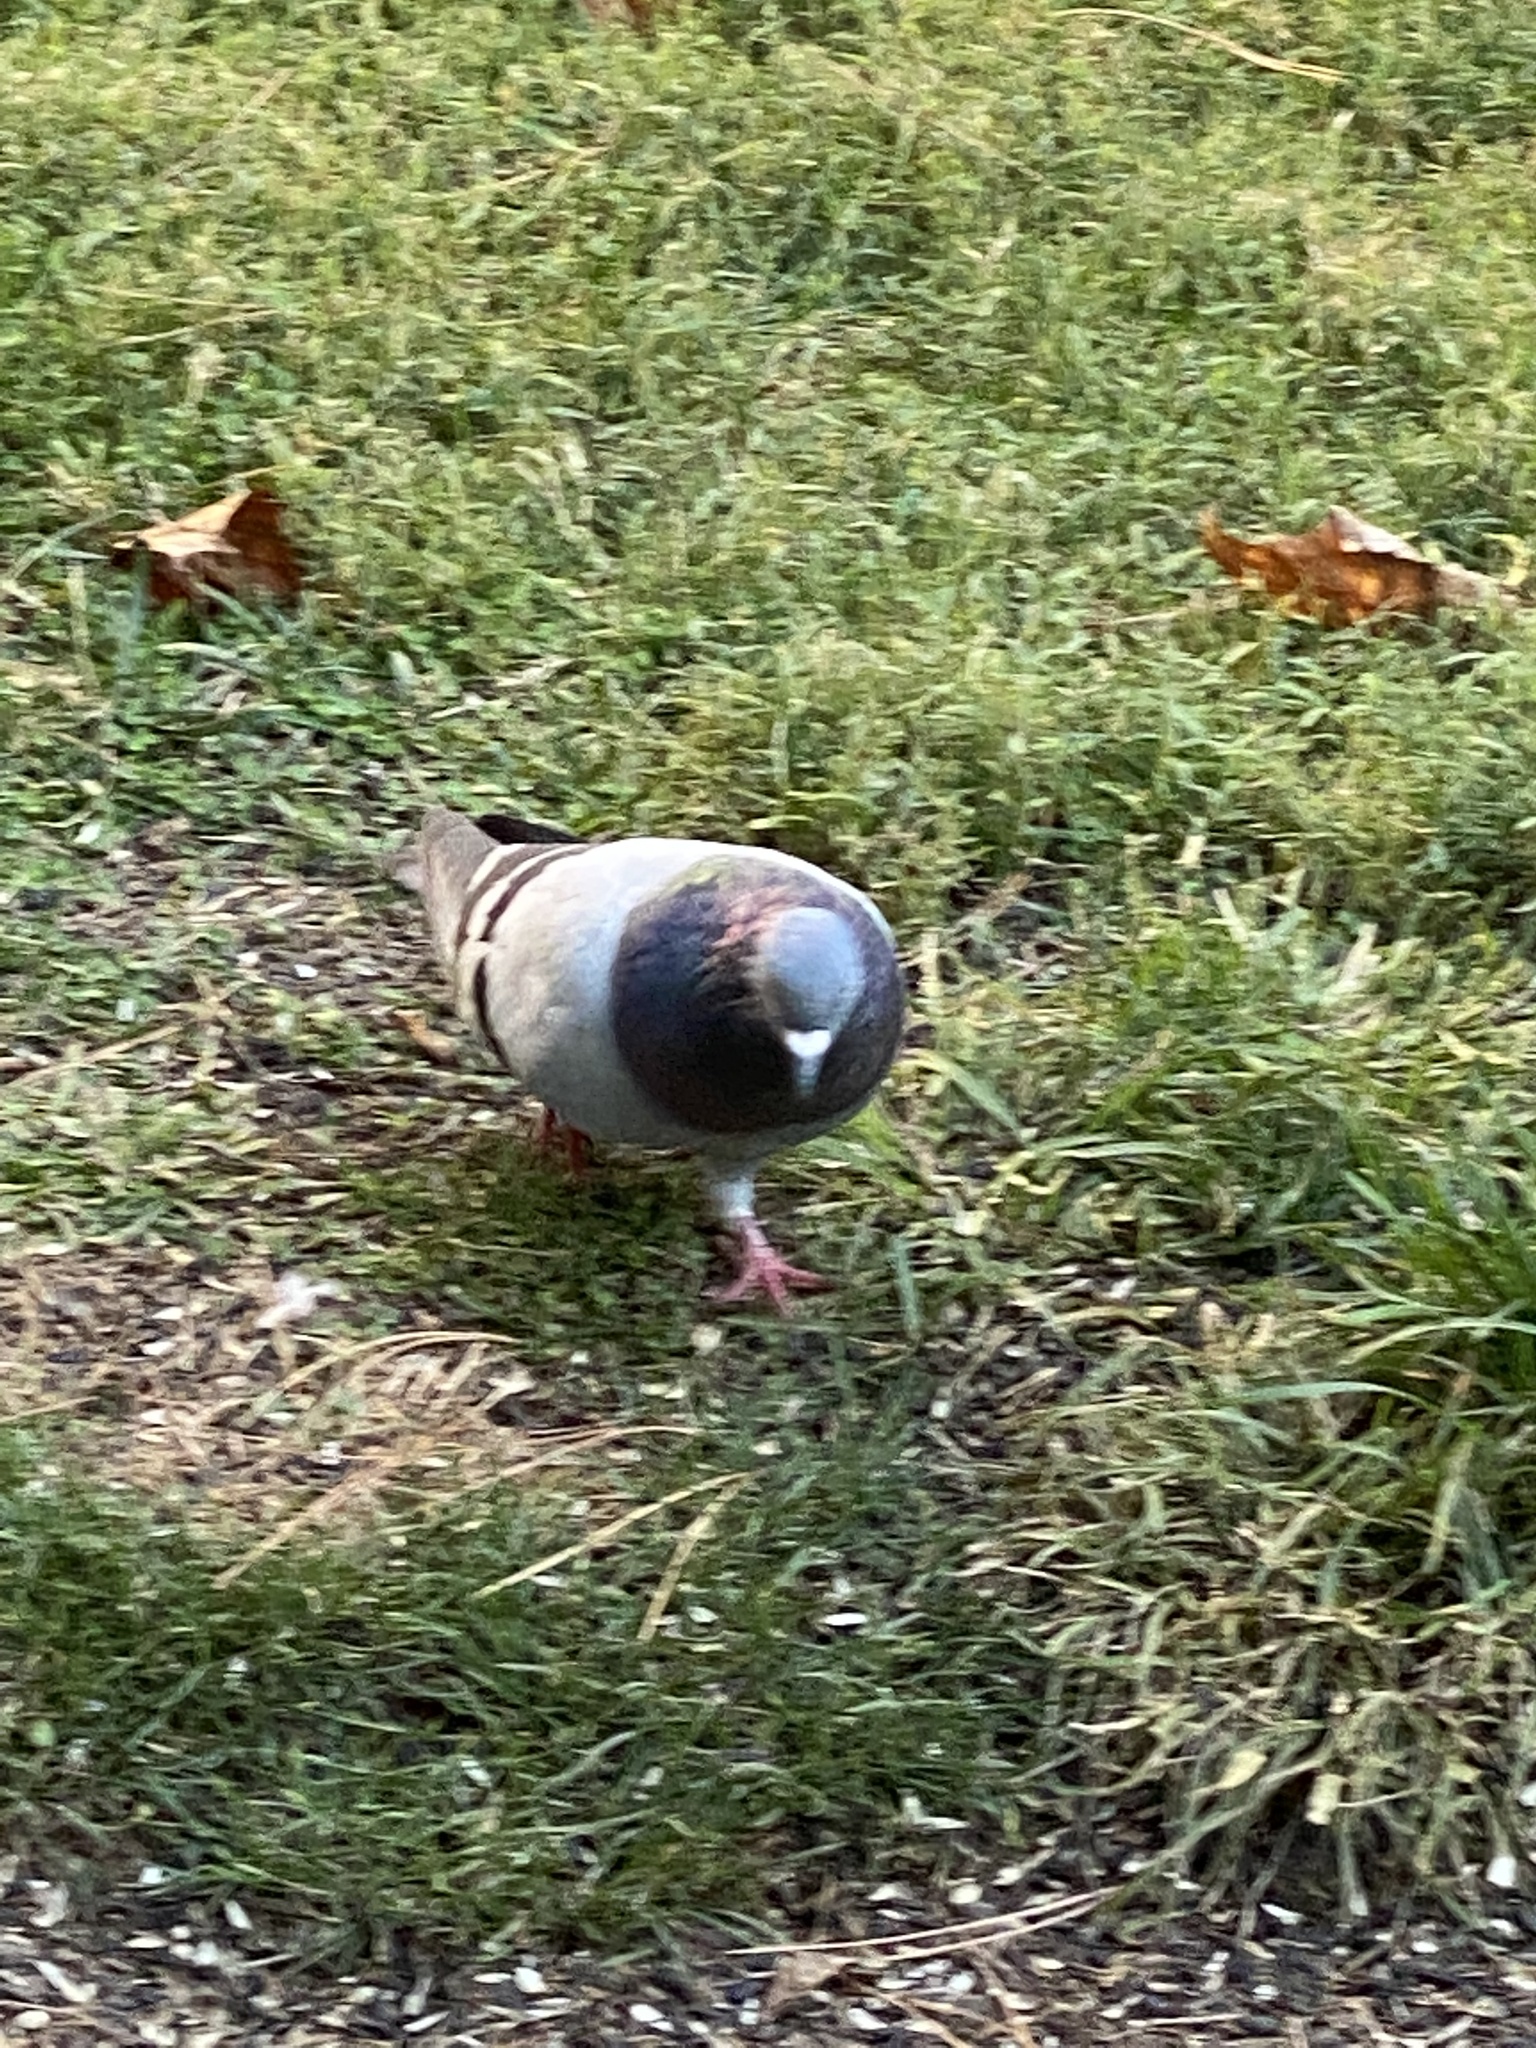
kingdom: Animalia
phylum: Chordata
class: Aves
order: Columbiformes
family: Columbidae
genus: Columba
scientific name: Columba livia
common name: Rock pigeon
